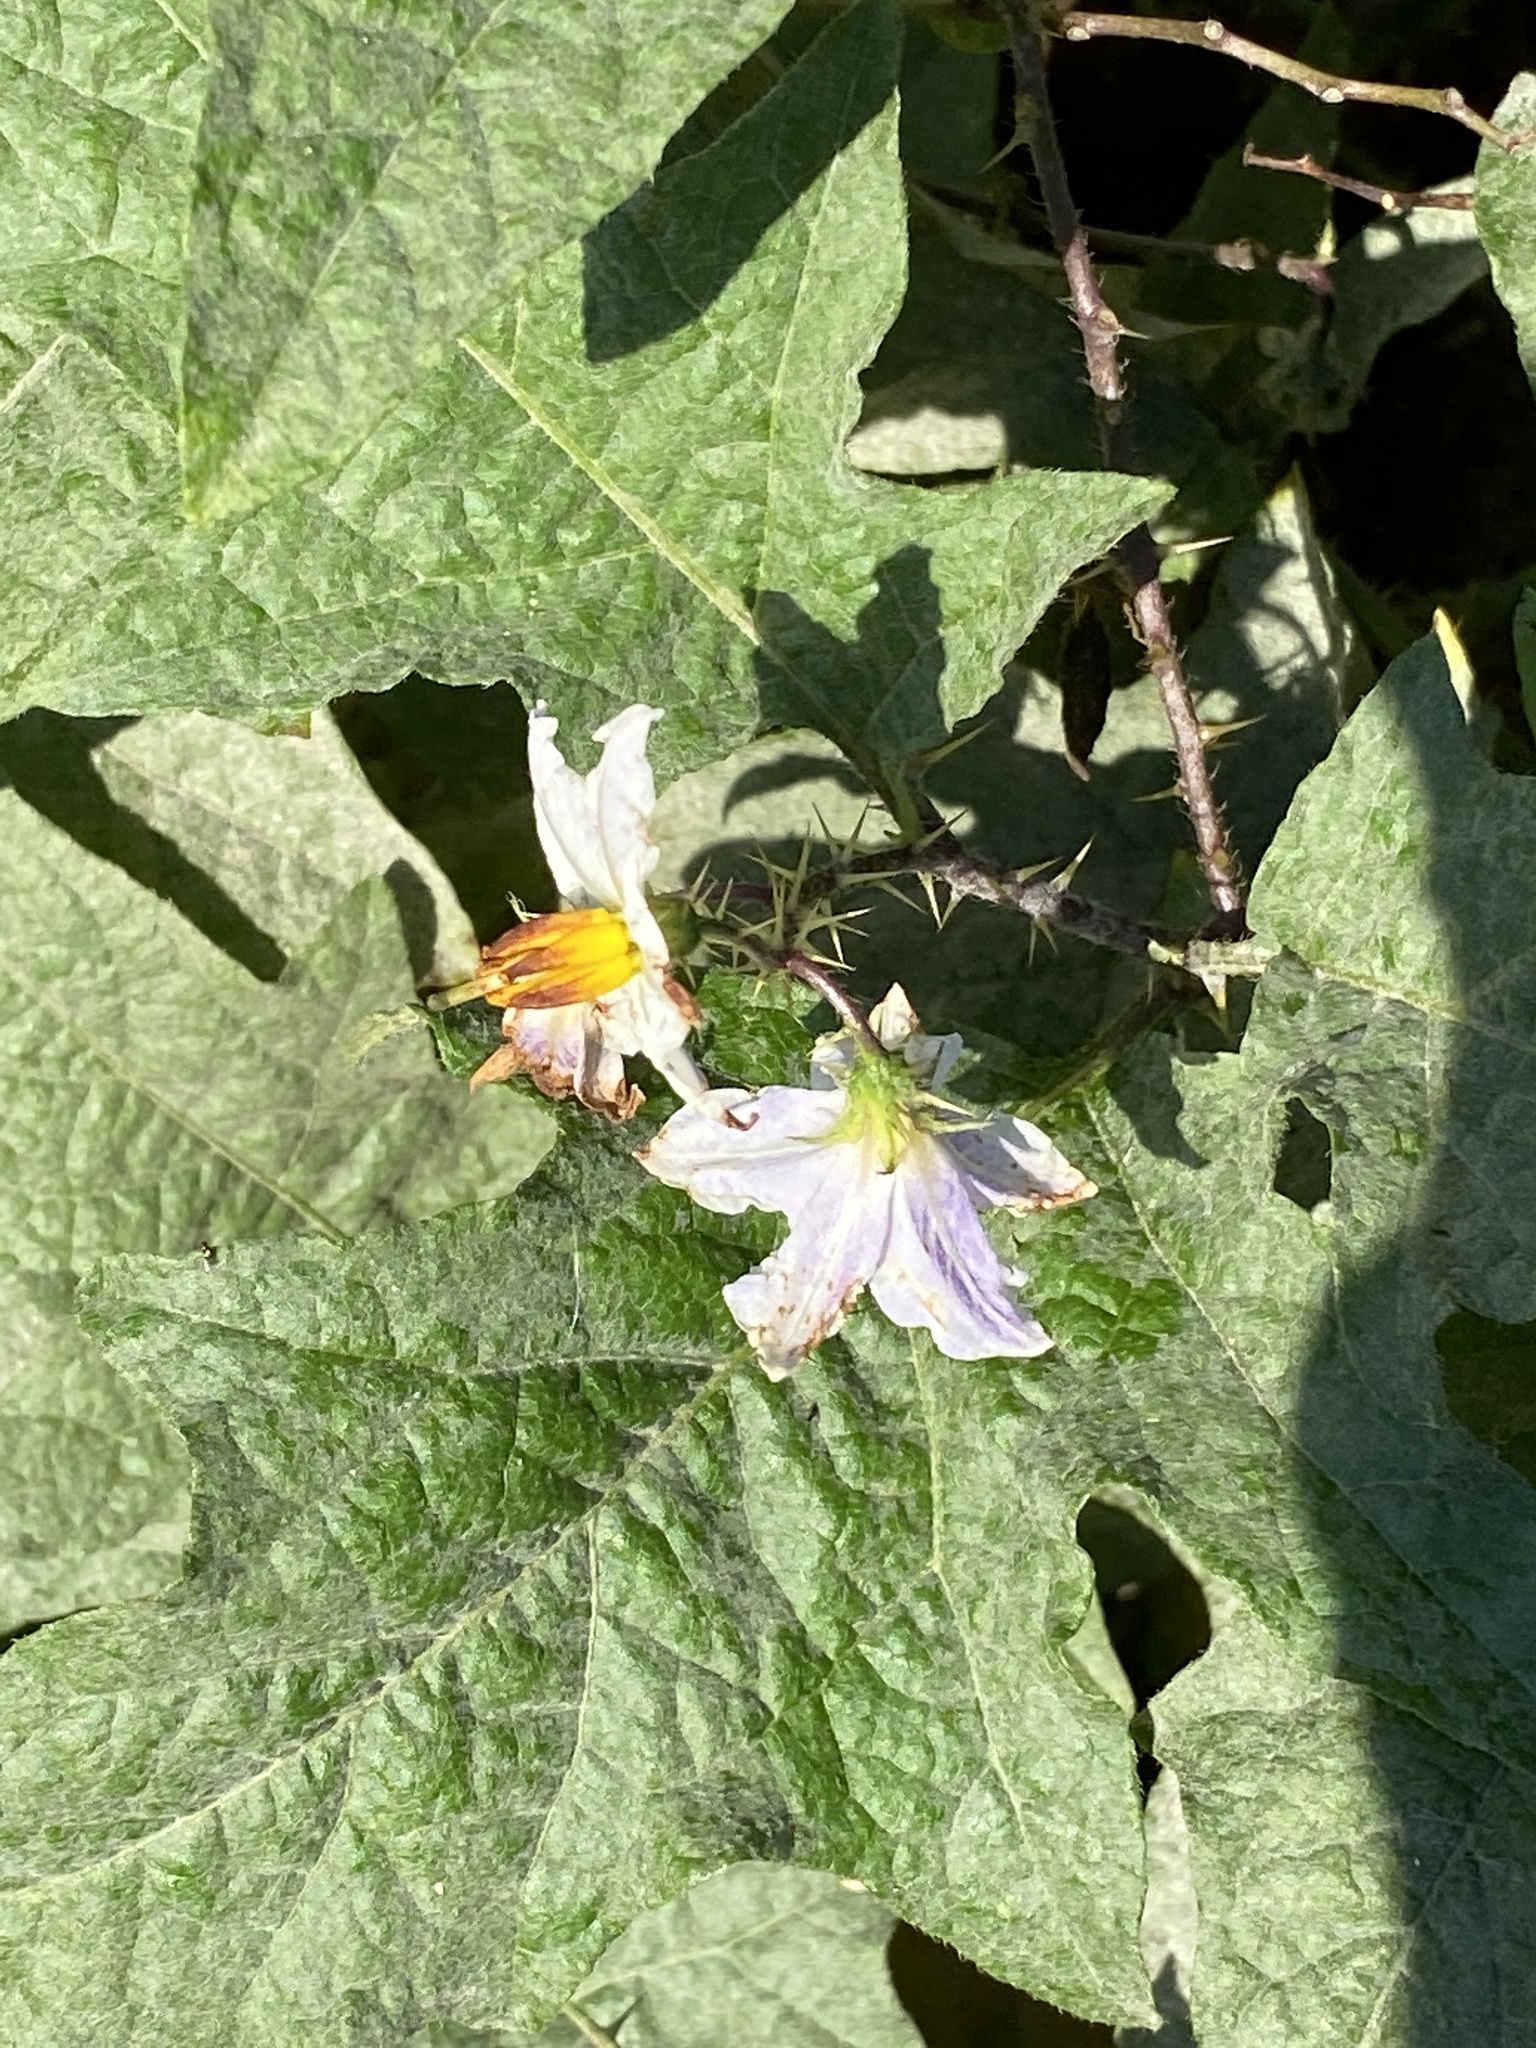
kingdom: Plantae
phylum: Tracheophyta
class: Magnoliopsida
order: Solanales
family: Solanaceae
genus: Solanum
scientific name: Solanum carolinense
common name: Horse-nettle
